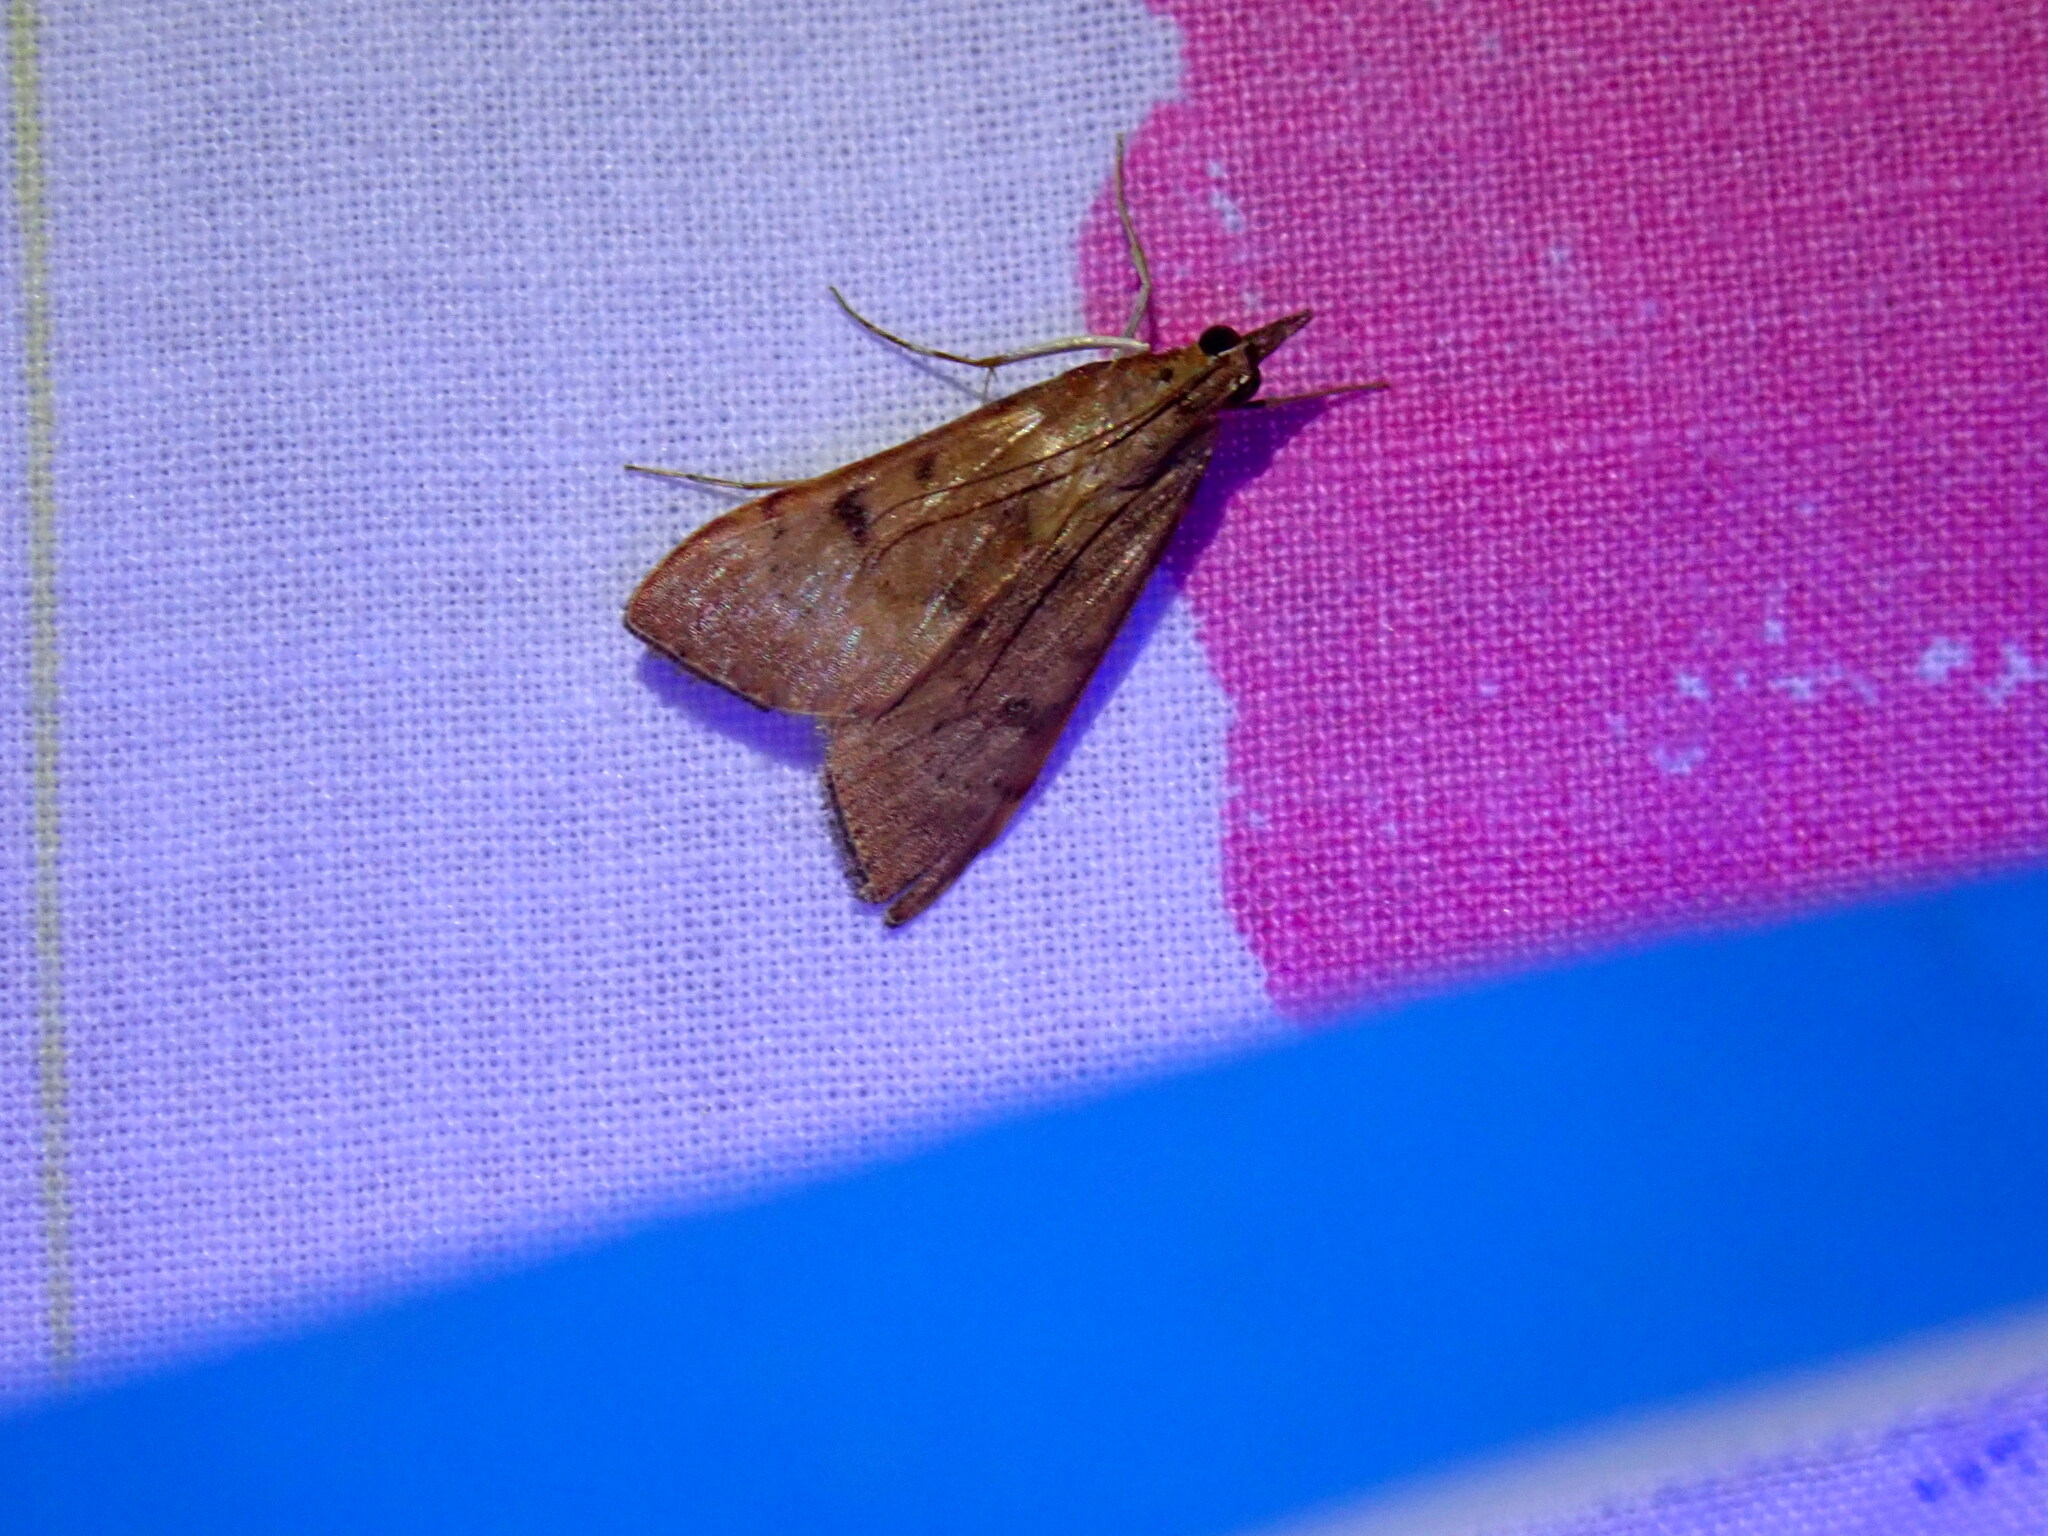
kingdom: Animalia
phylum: Arthropoda
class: Insecta
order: Lepidoptera
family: Crambidae
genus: Uresiphita
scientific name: Uresiphita gilvata
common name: Yellow-underwing pearl
